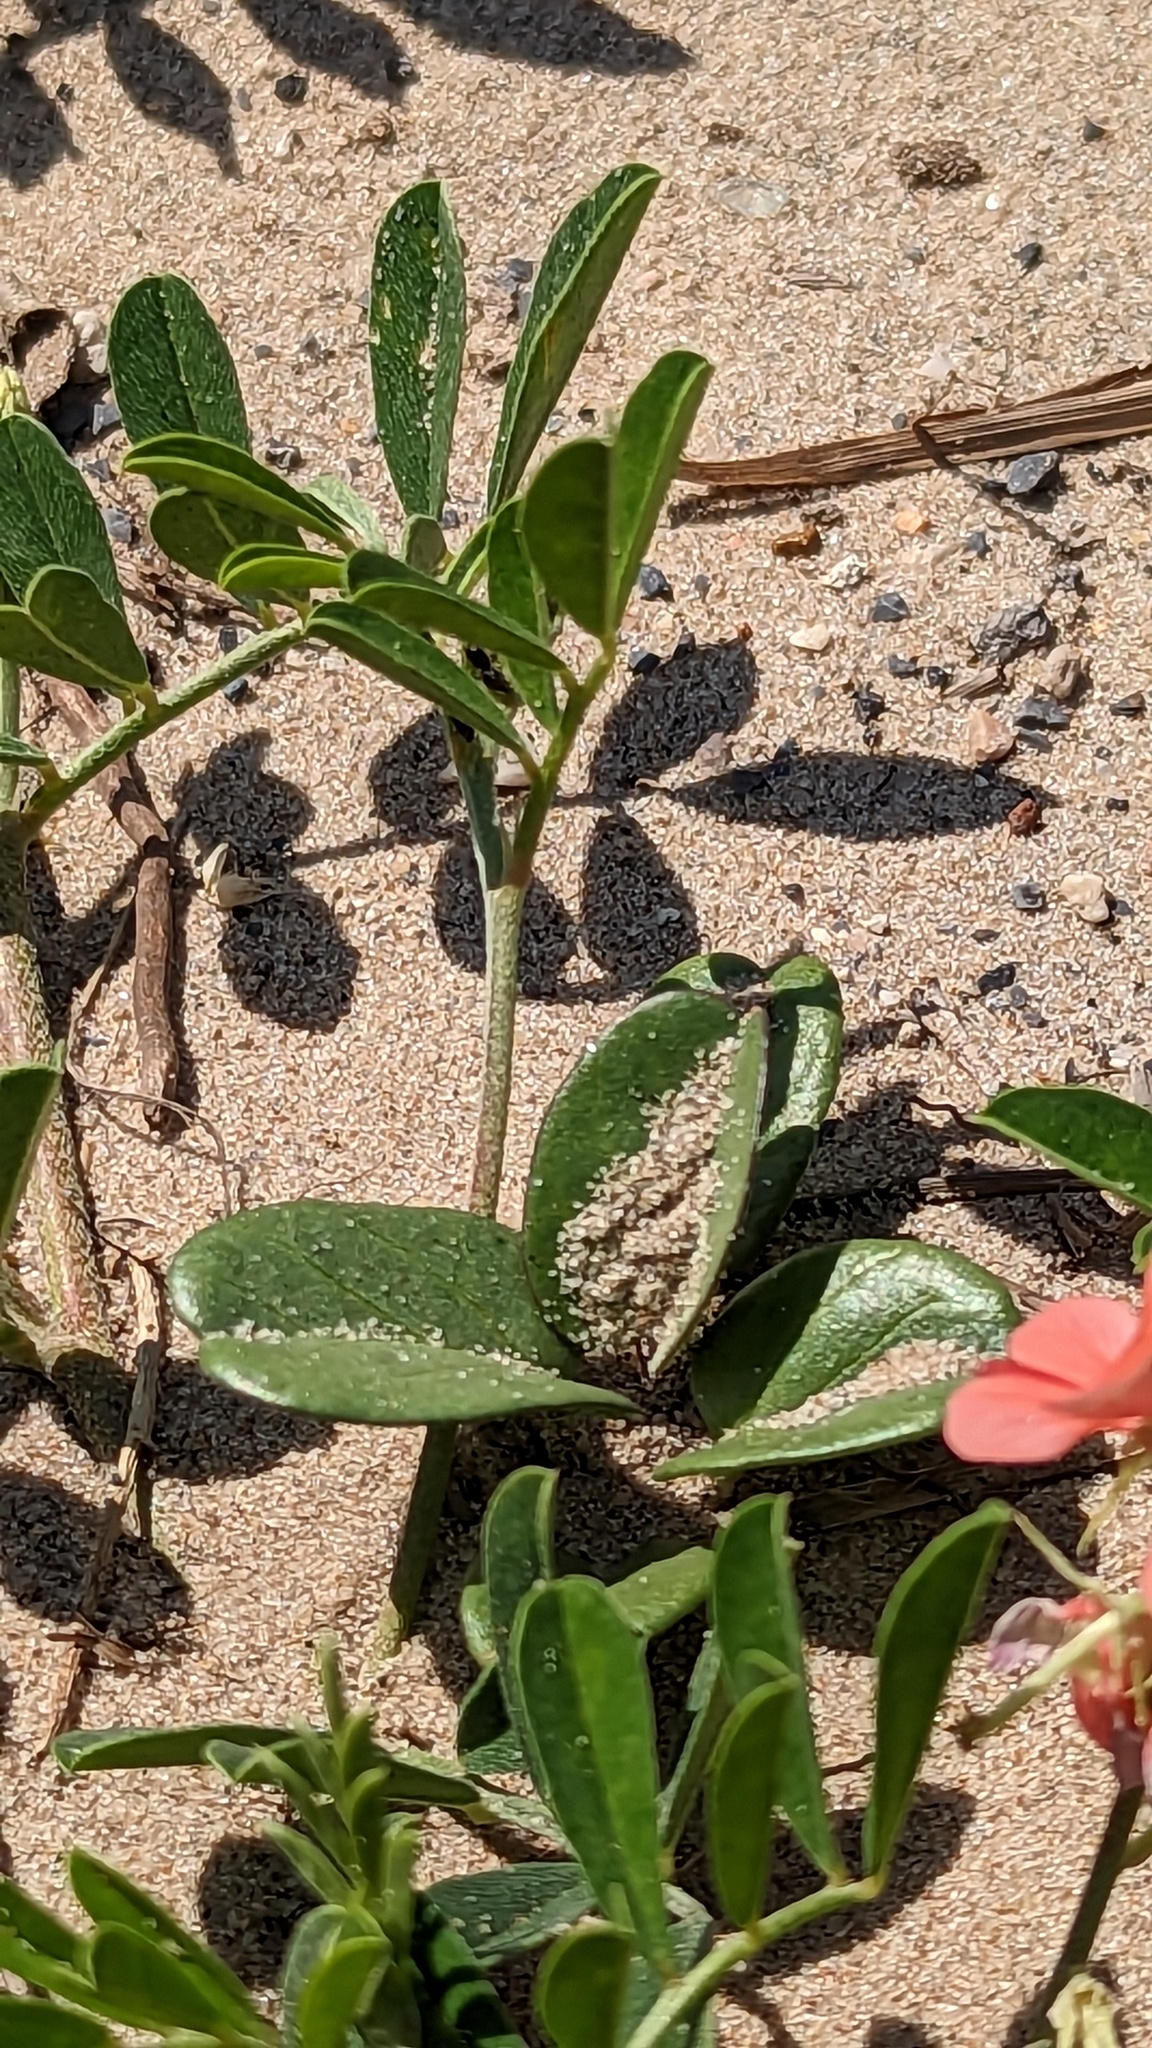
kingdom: Plantae
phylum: Tracheophyta
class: Magnoliopsida
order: Fabales
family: Fabaceae
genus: Indigofera
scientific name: Indigofera miniata
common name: Coast indigo
